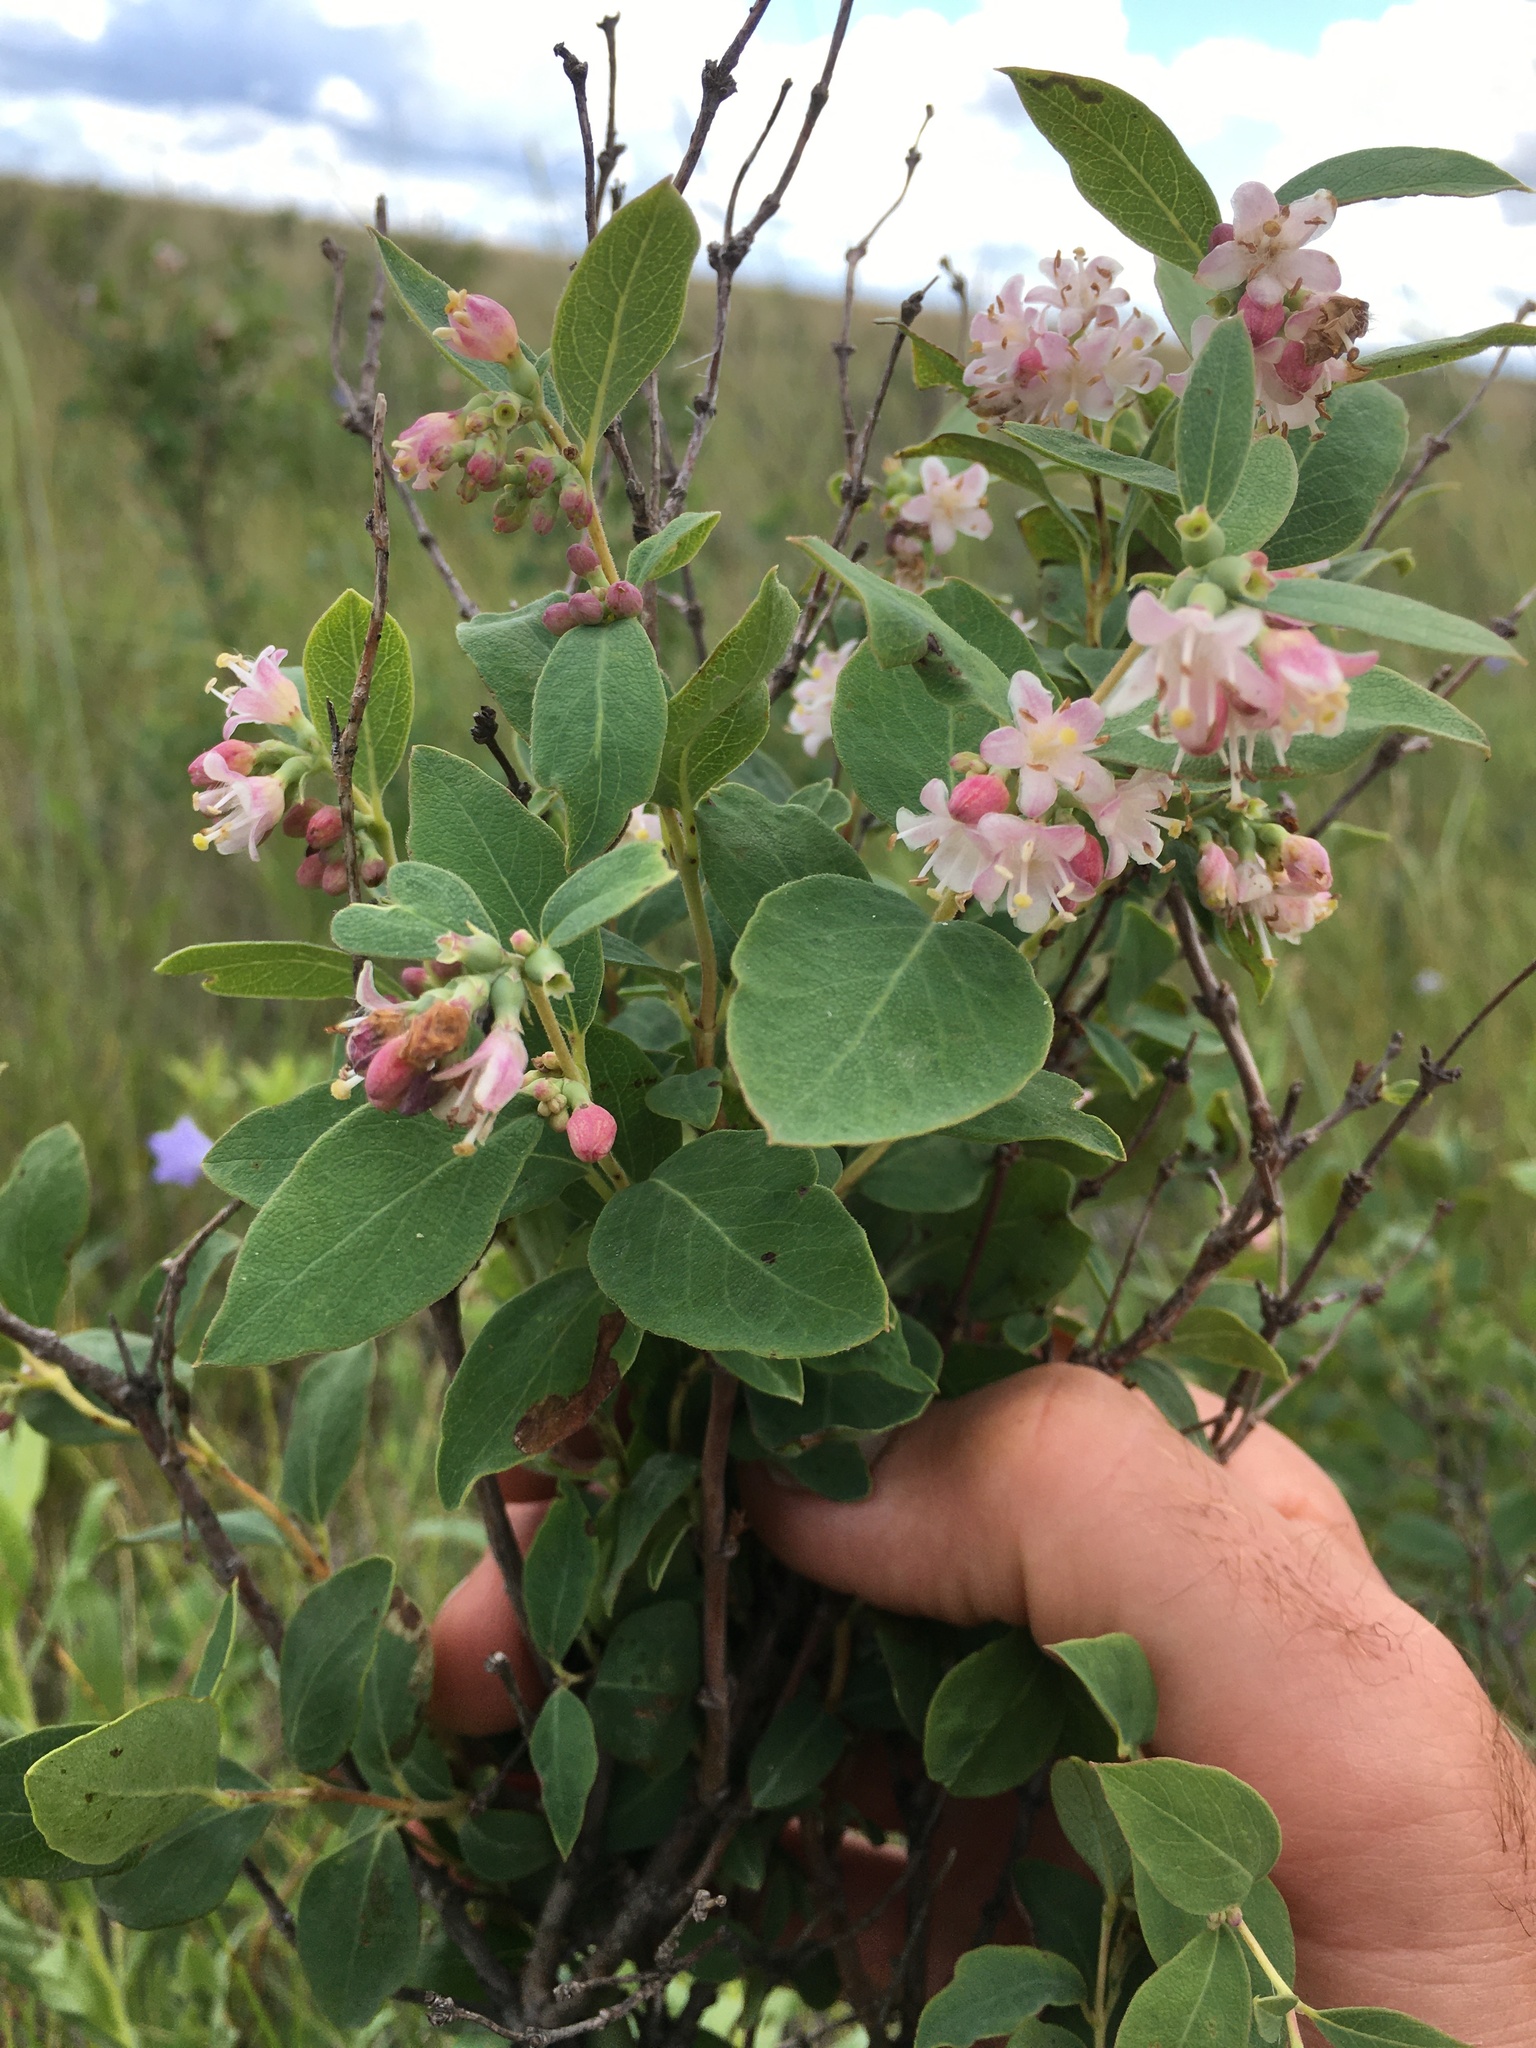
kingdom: Plantae
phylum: Tracheophyta
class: Magnoliopsida
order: Dipsacales
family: Caprifoliaceae
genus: Symphoricarpos
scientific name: Symphoricarpos occidentalis
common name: Wolfberry
